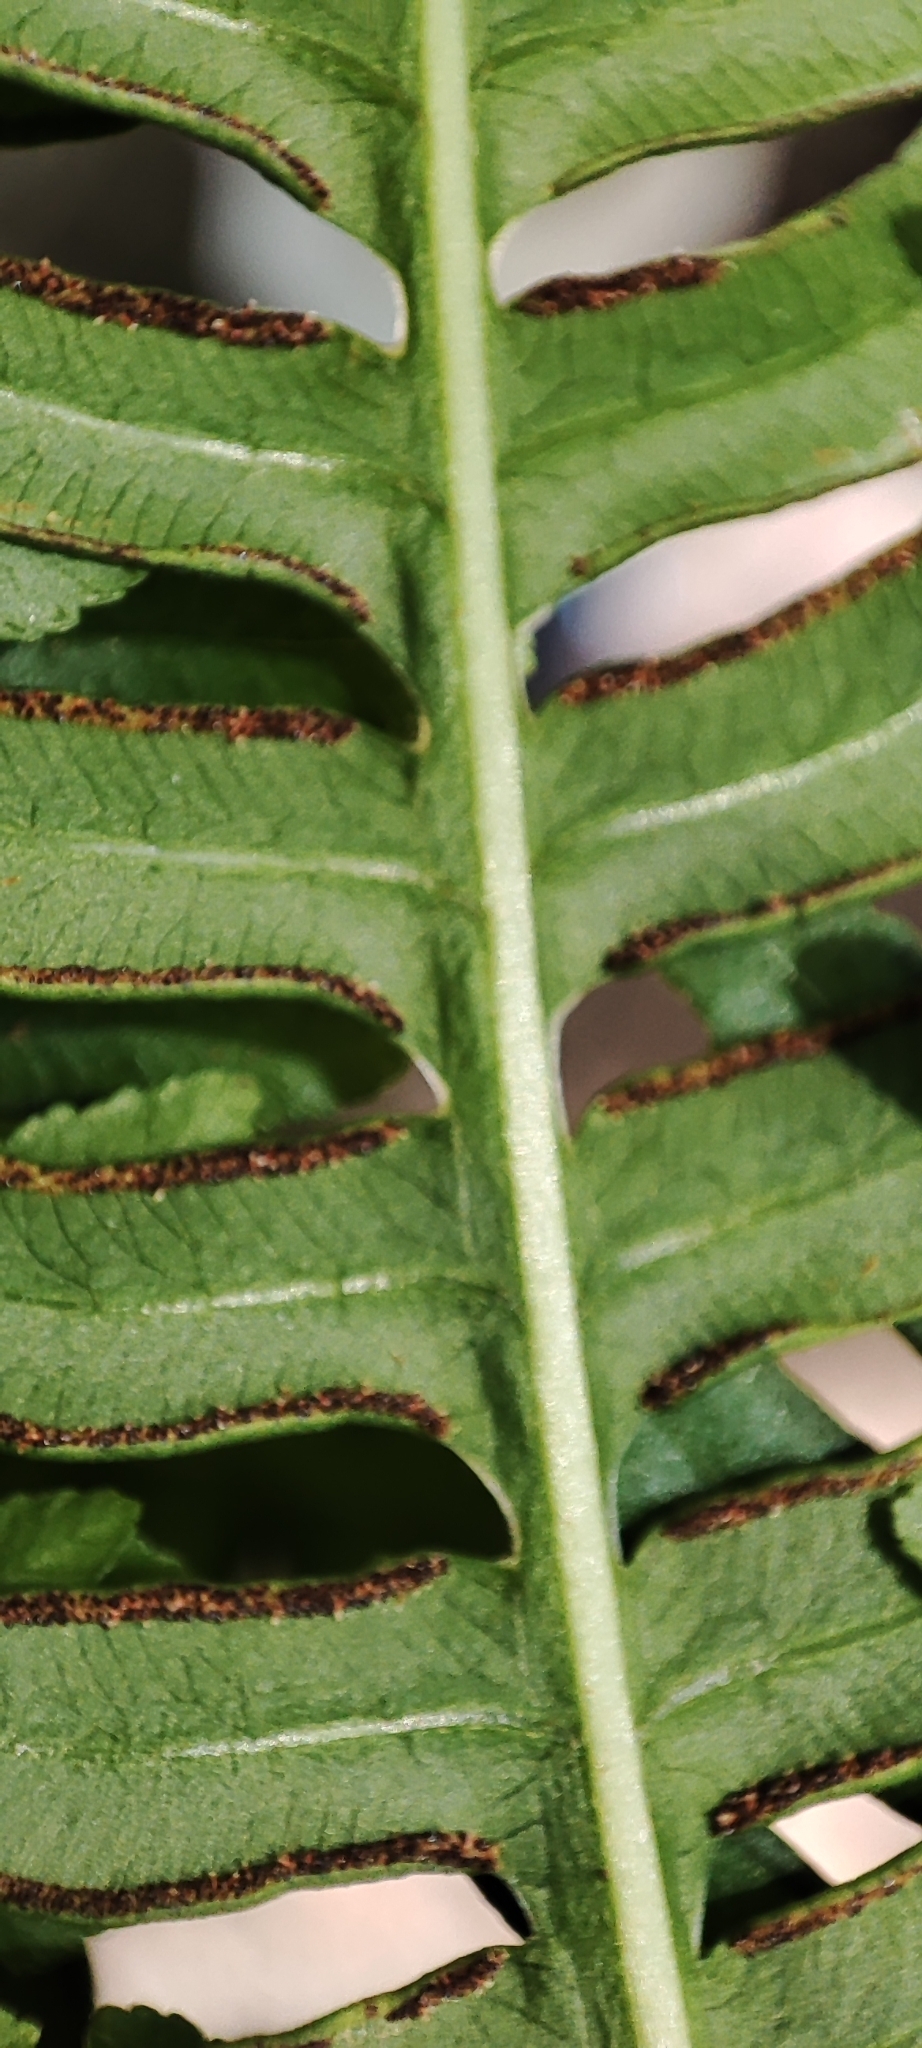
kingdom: Plantae
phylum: Tracheophyta
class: Polypodiopsida
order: Polypodiales
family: Pteridaceae
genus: Pteris
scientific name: Pteris tripartita
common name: Giant brake
